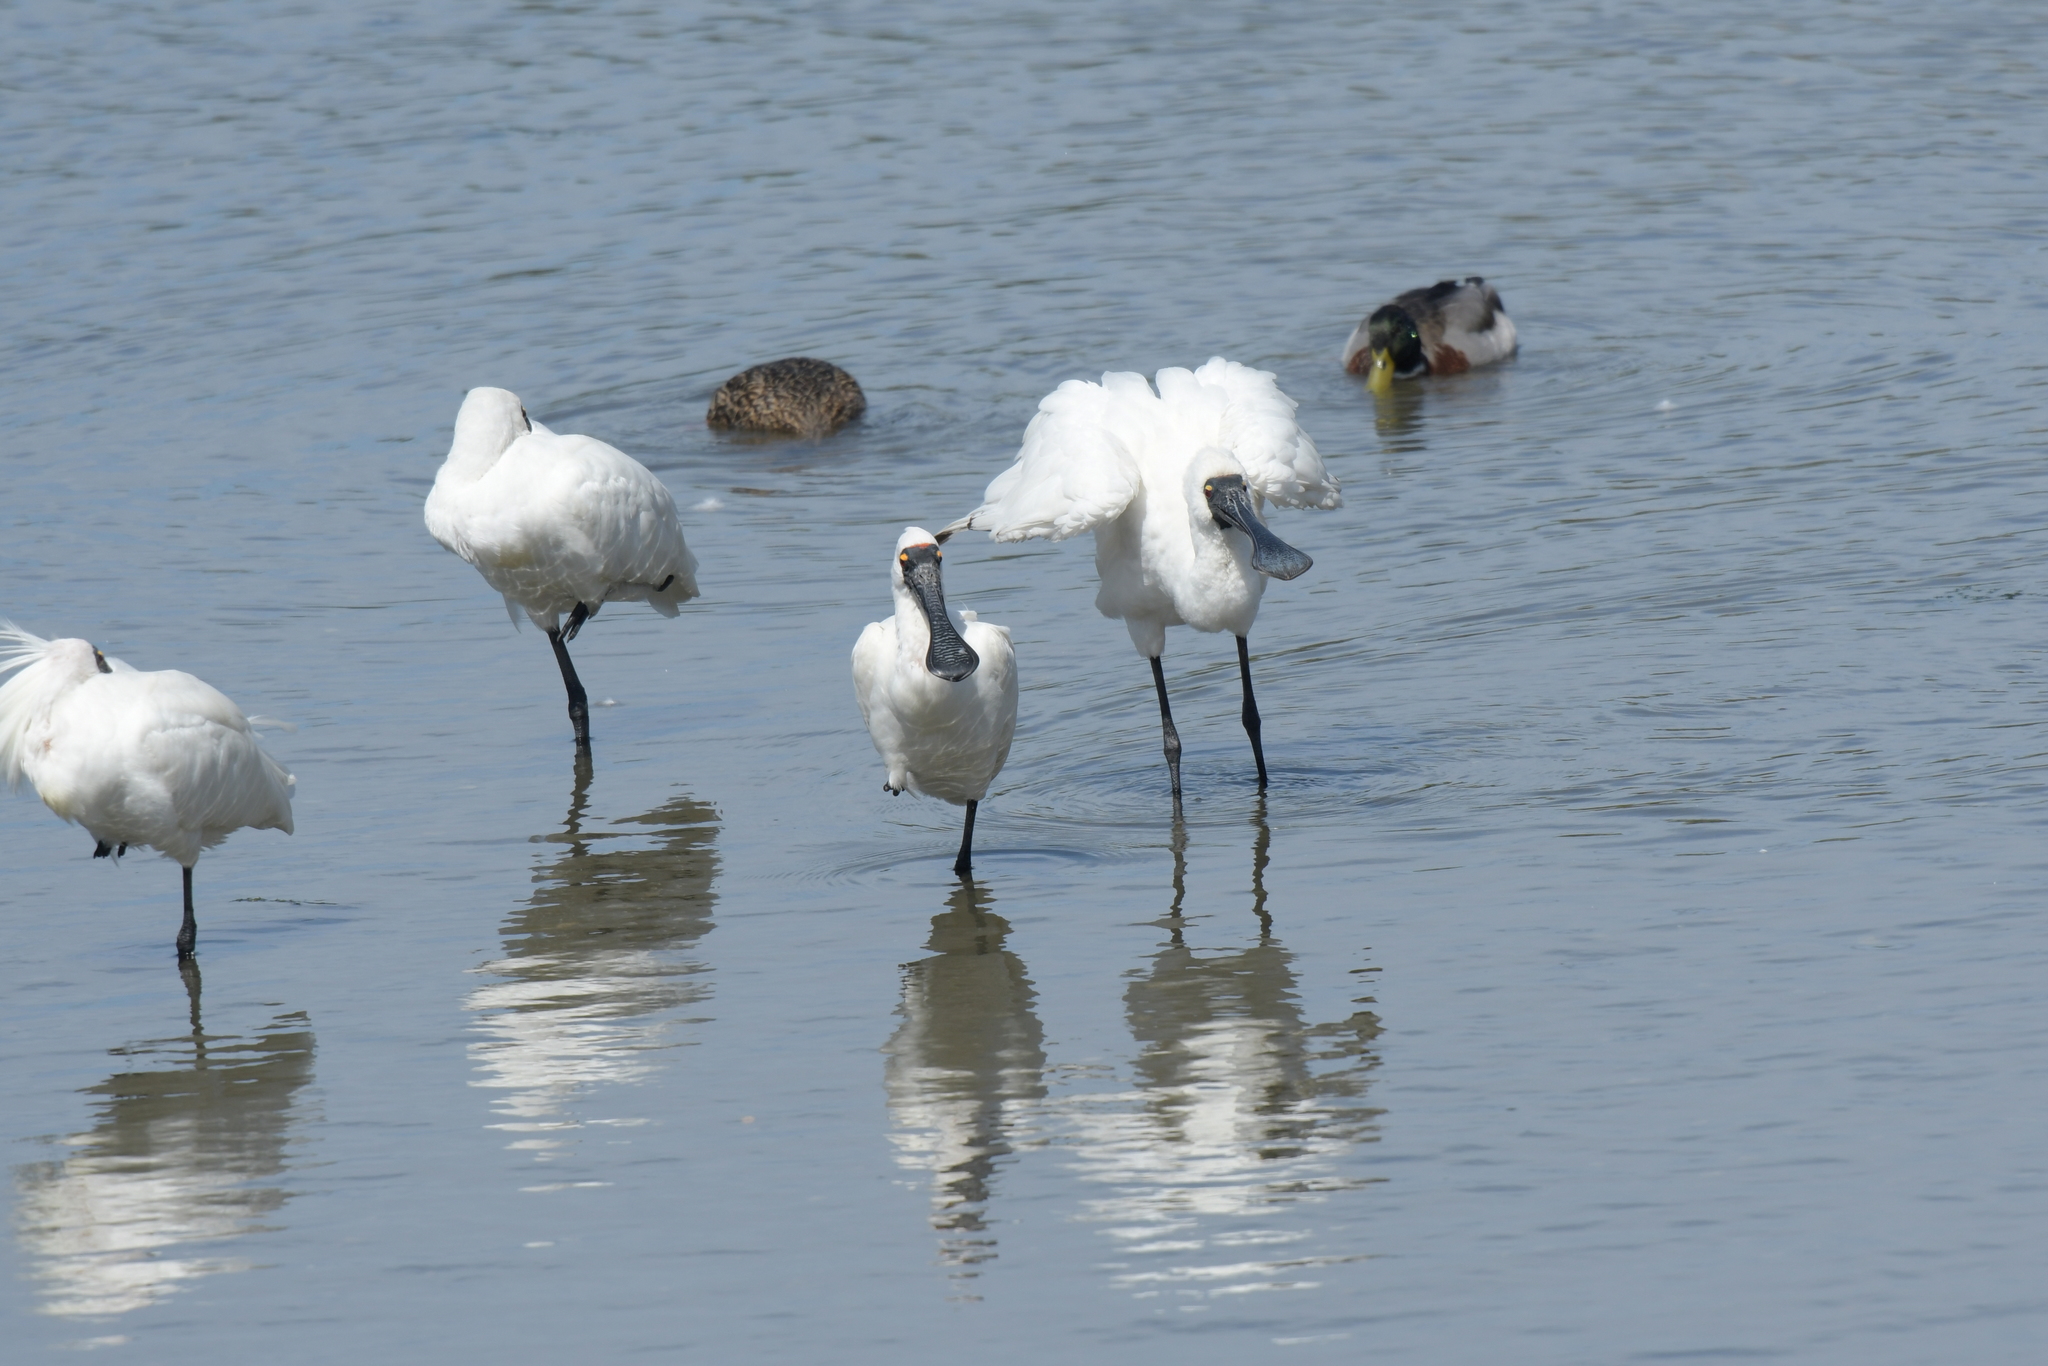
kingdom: Animalia
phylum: Chordata
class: Aves
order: Pelecaniformes
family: Threskiornithidae
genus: Platalea
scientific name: Platalea regia
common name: Royal spoonbill
